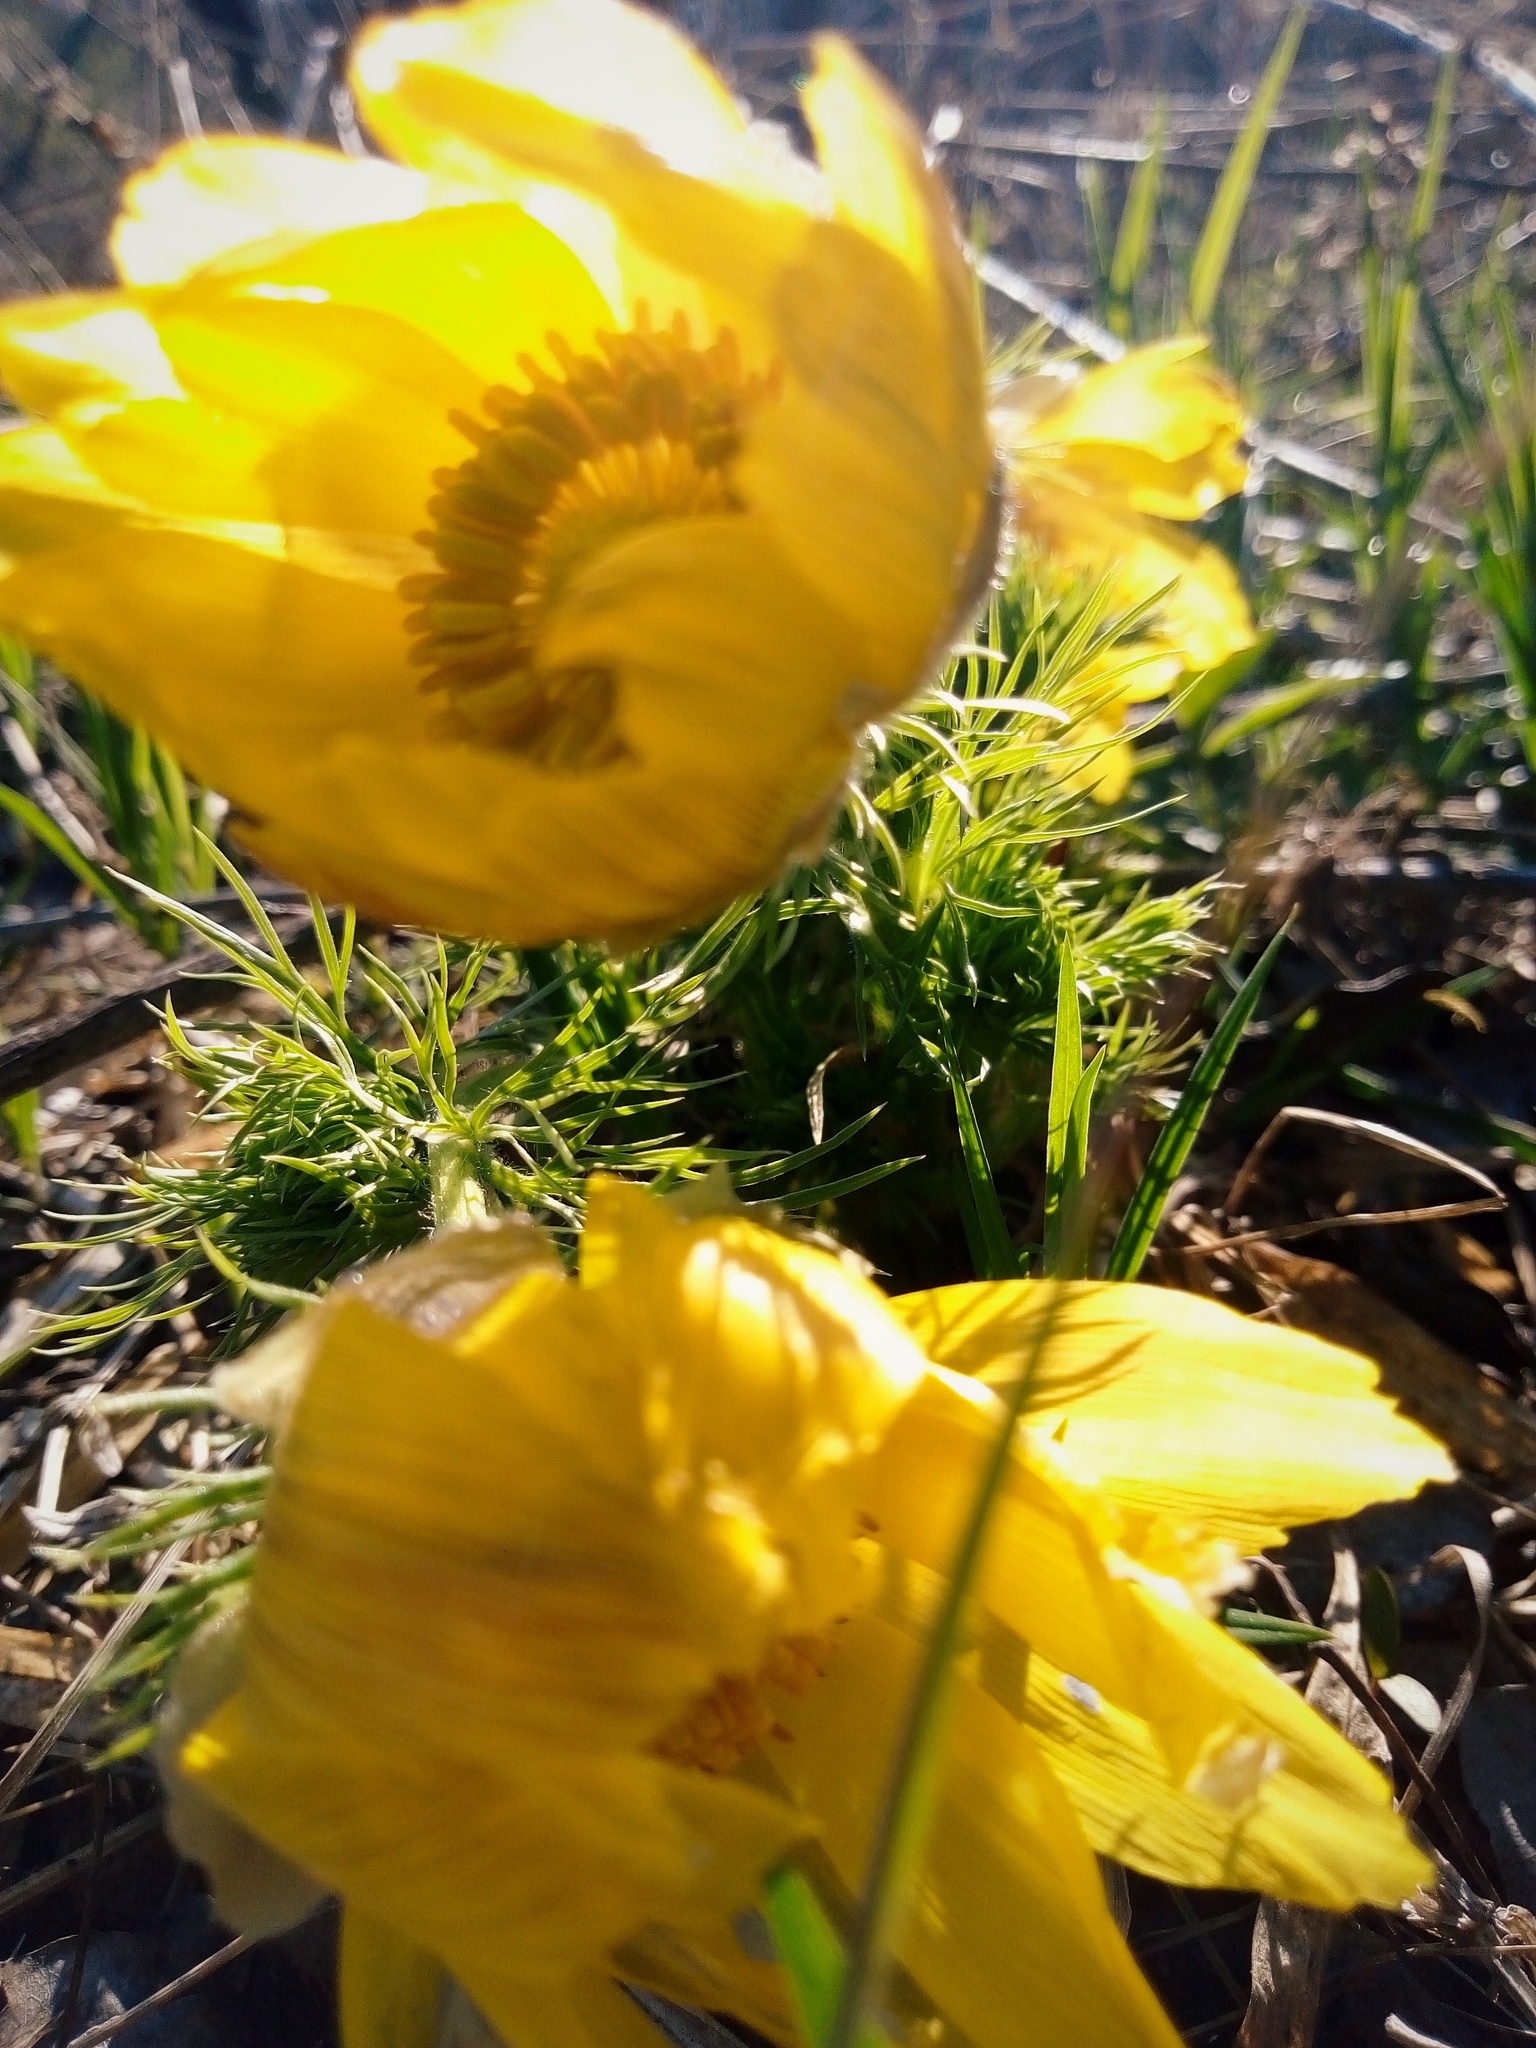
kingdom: Plantae
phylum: Tracheophyta
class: Magnoliopsida
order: Ranunculales
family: Ranunculaceae
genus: Adonis
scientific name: Adonis vernalis
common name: Yellow pheasants-eye
